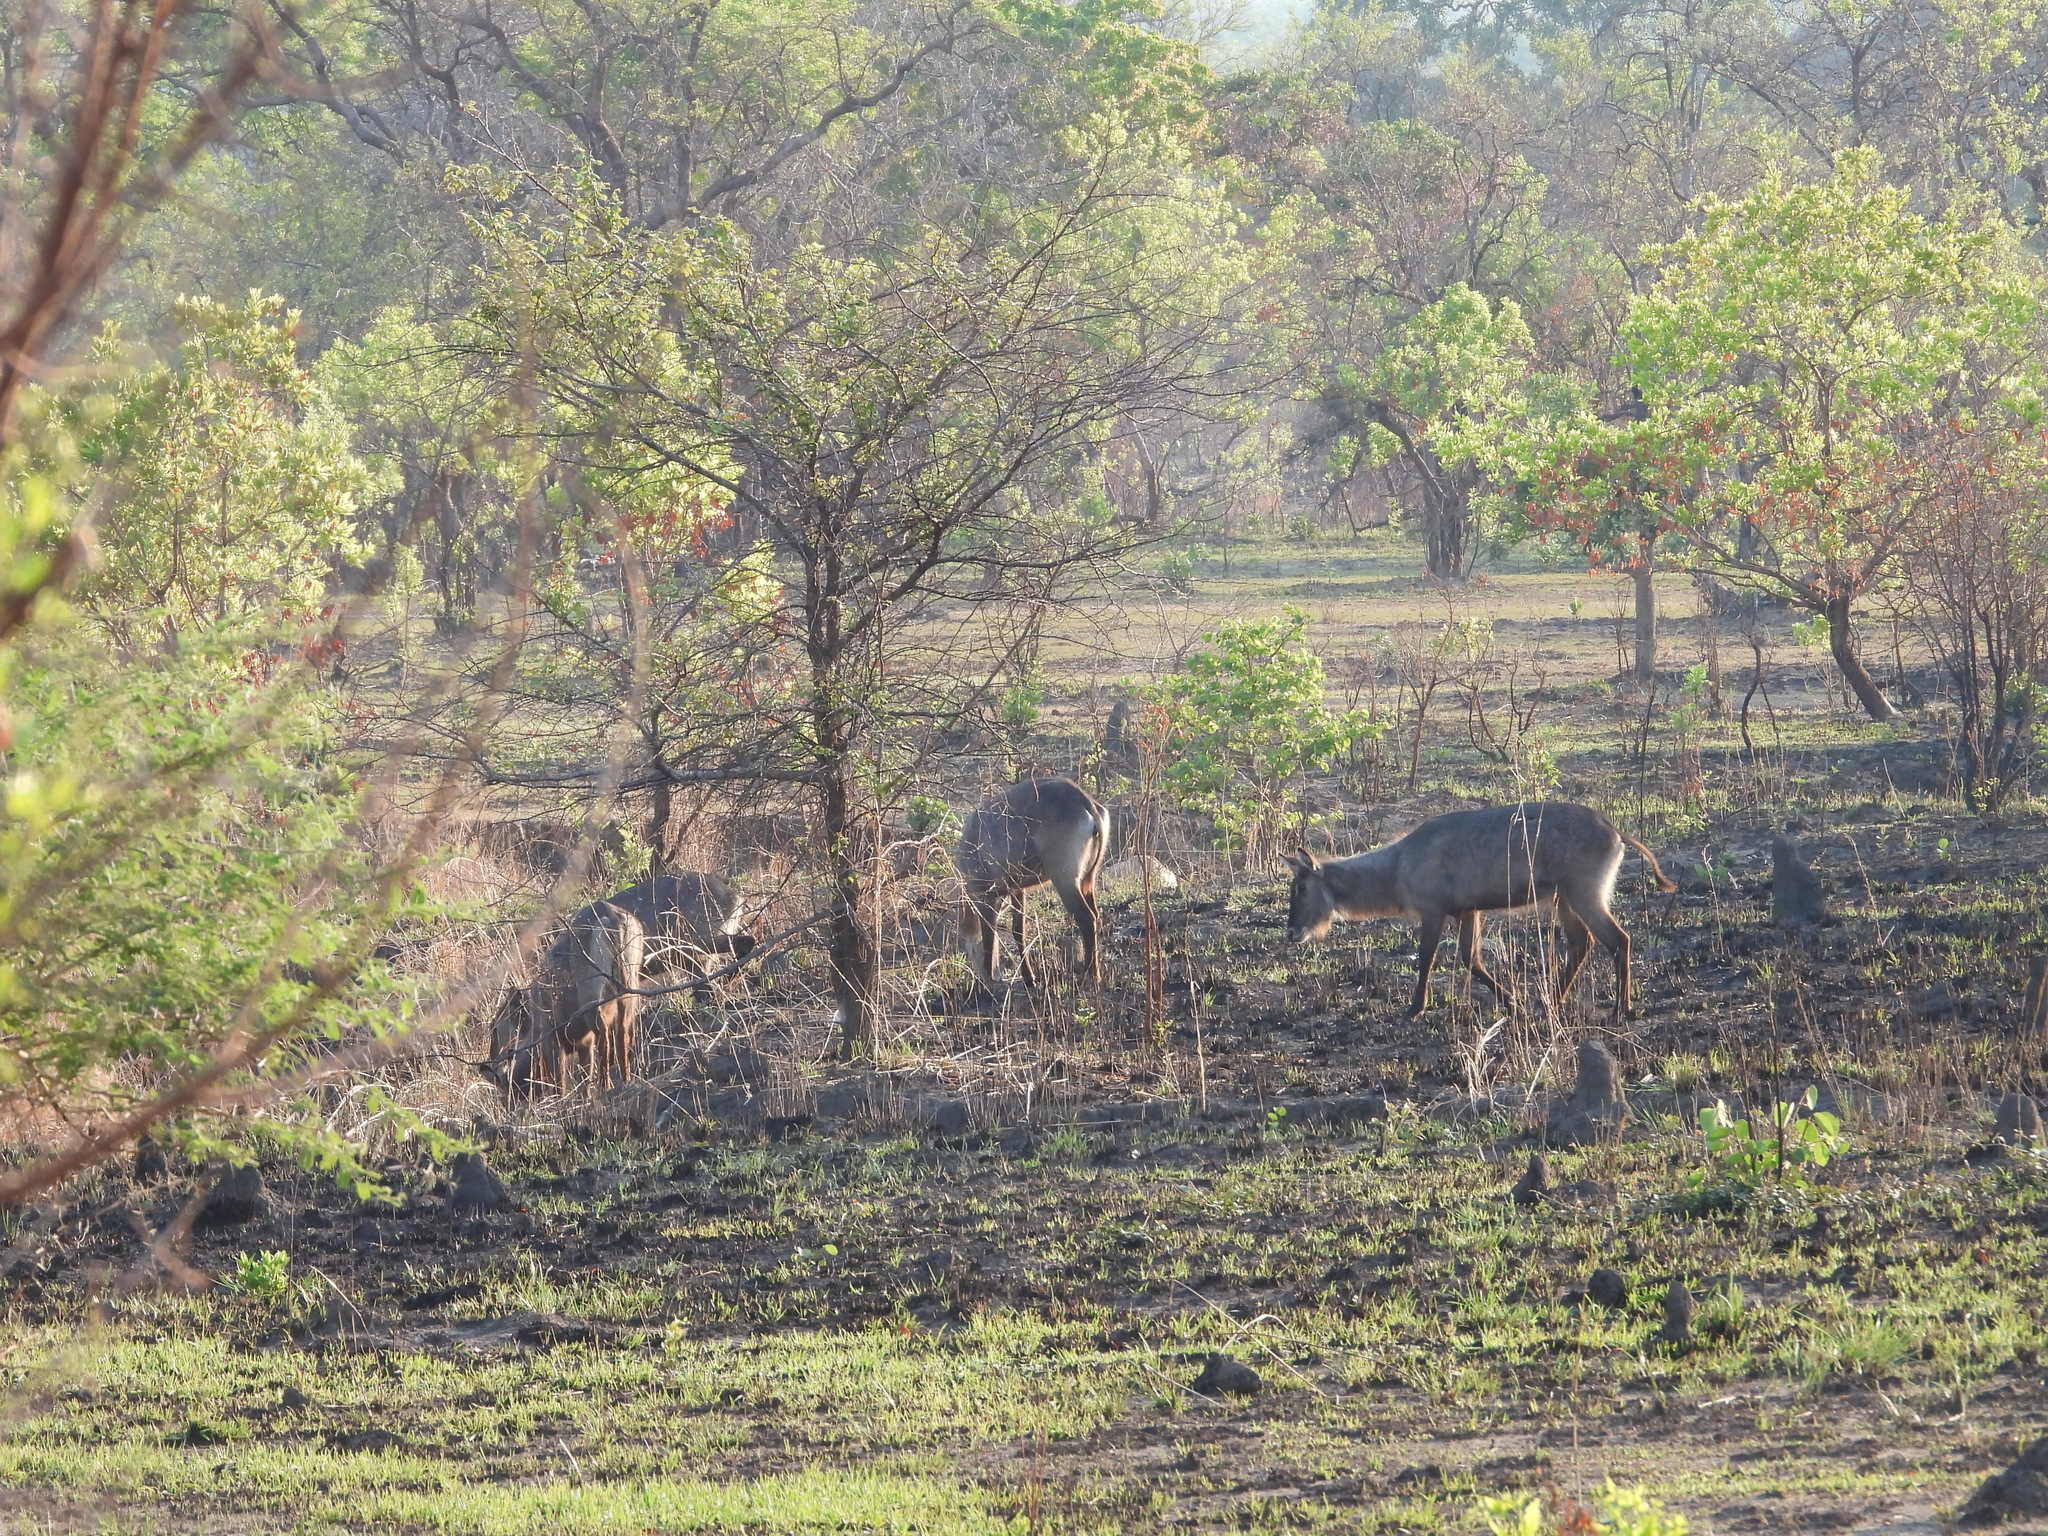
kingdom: Animalia
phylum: Chordata
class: Mammalia
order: Artiodactyla
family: Bovidae
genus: Kobus
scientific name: Kobus ellipsiprymnus
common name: Waterbuck
